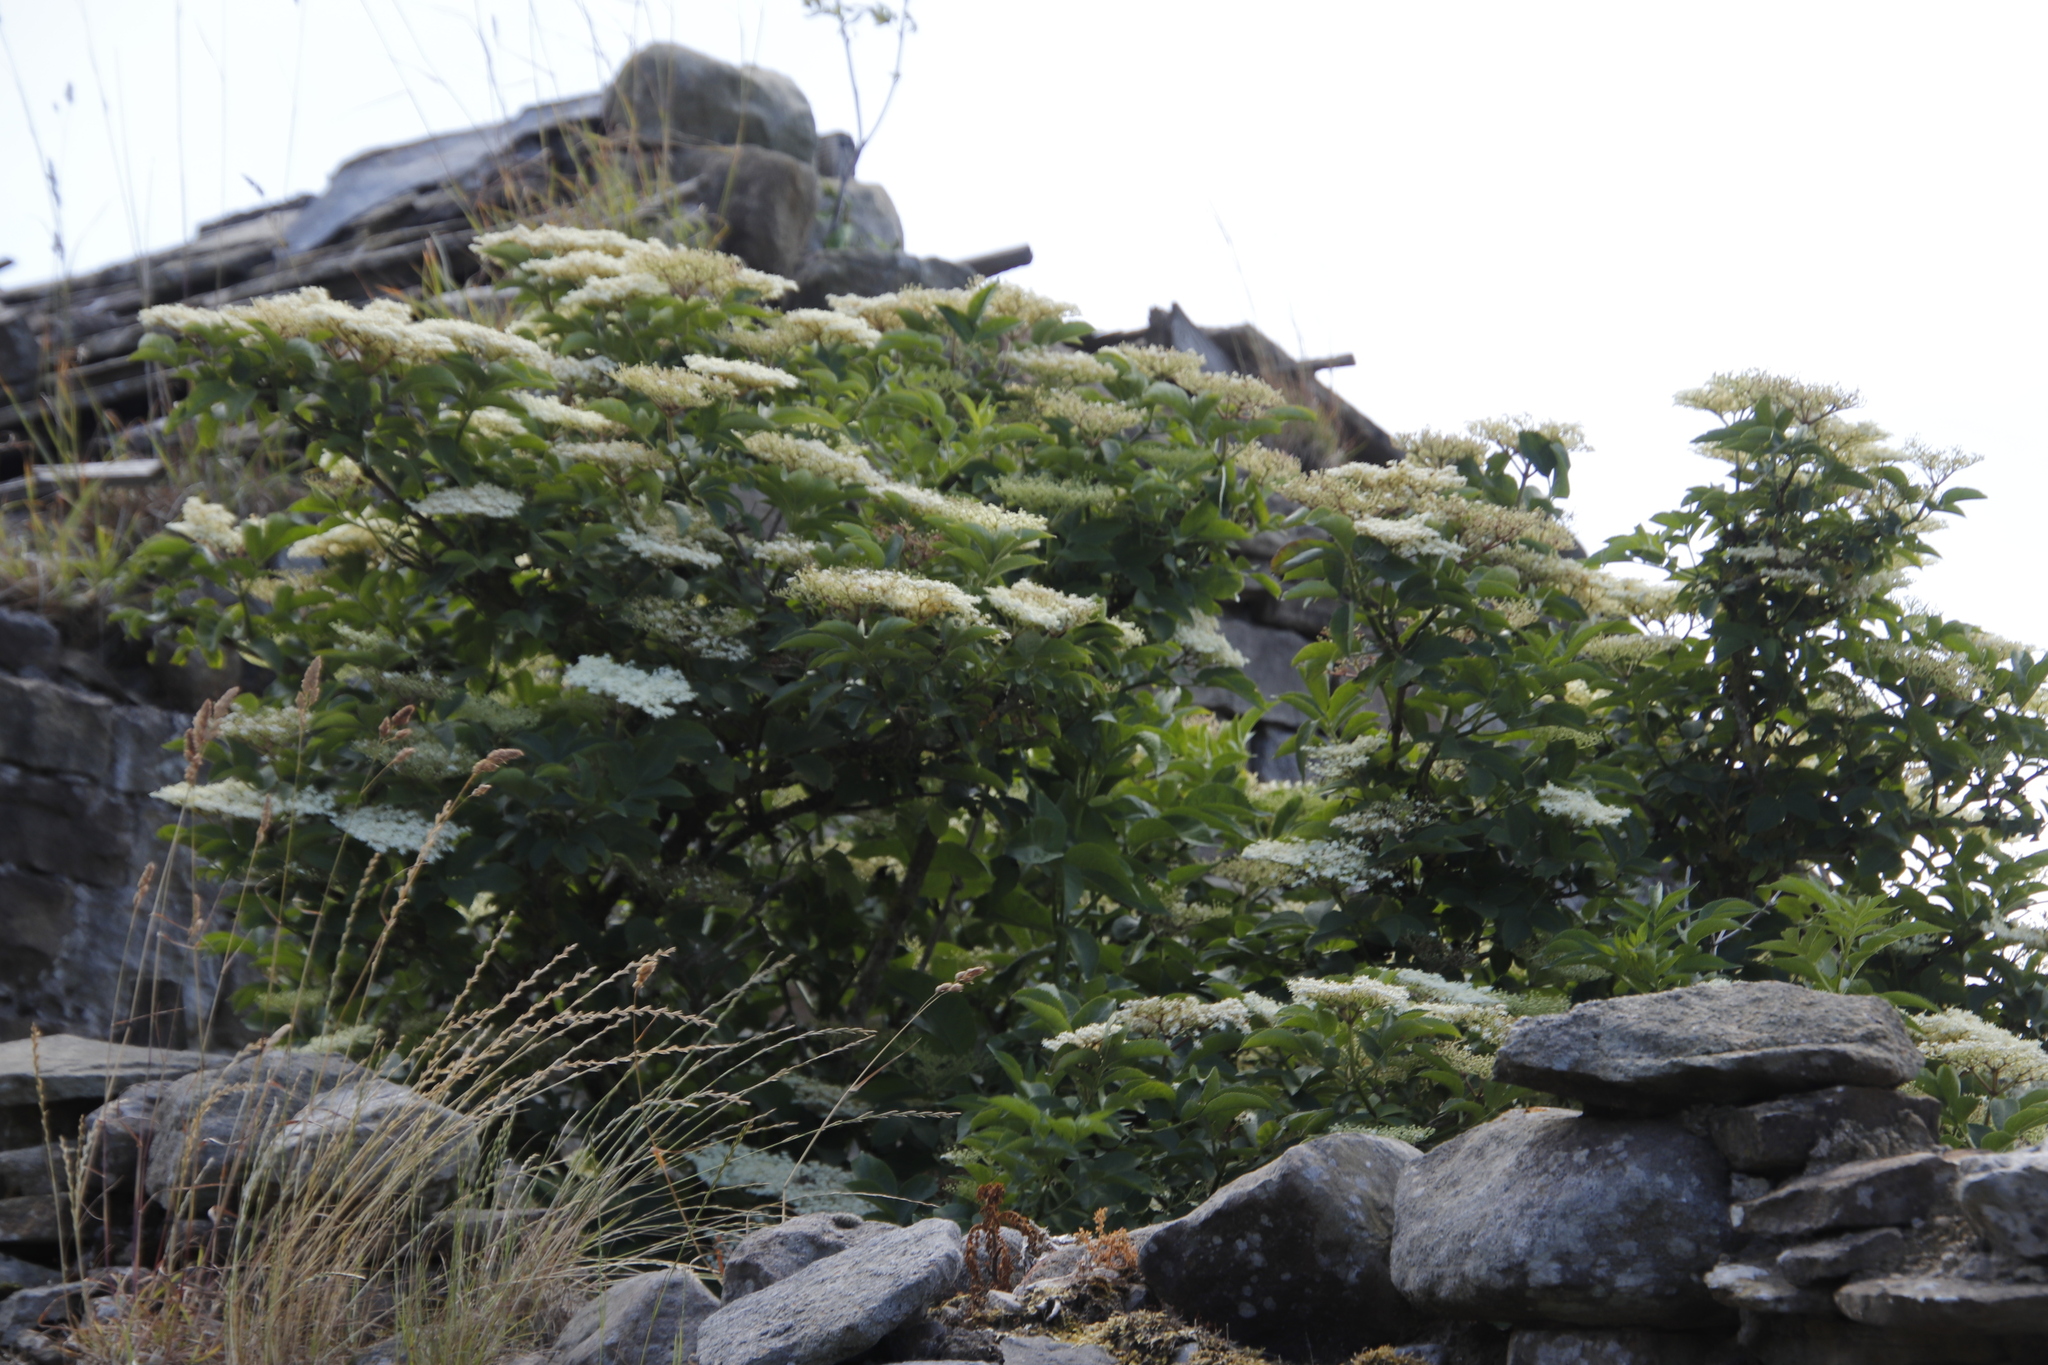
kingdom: Plantae
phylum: Tracheophyta
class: Magnoliopsida
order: Dipsacales
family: Viburnaceae
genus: Sambucus
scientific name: Sambucus nigra
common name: Elder
